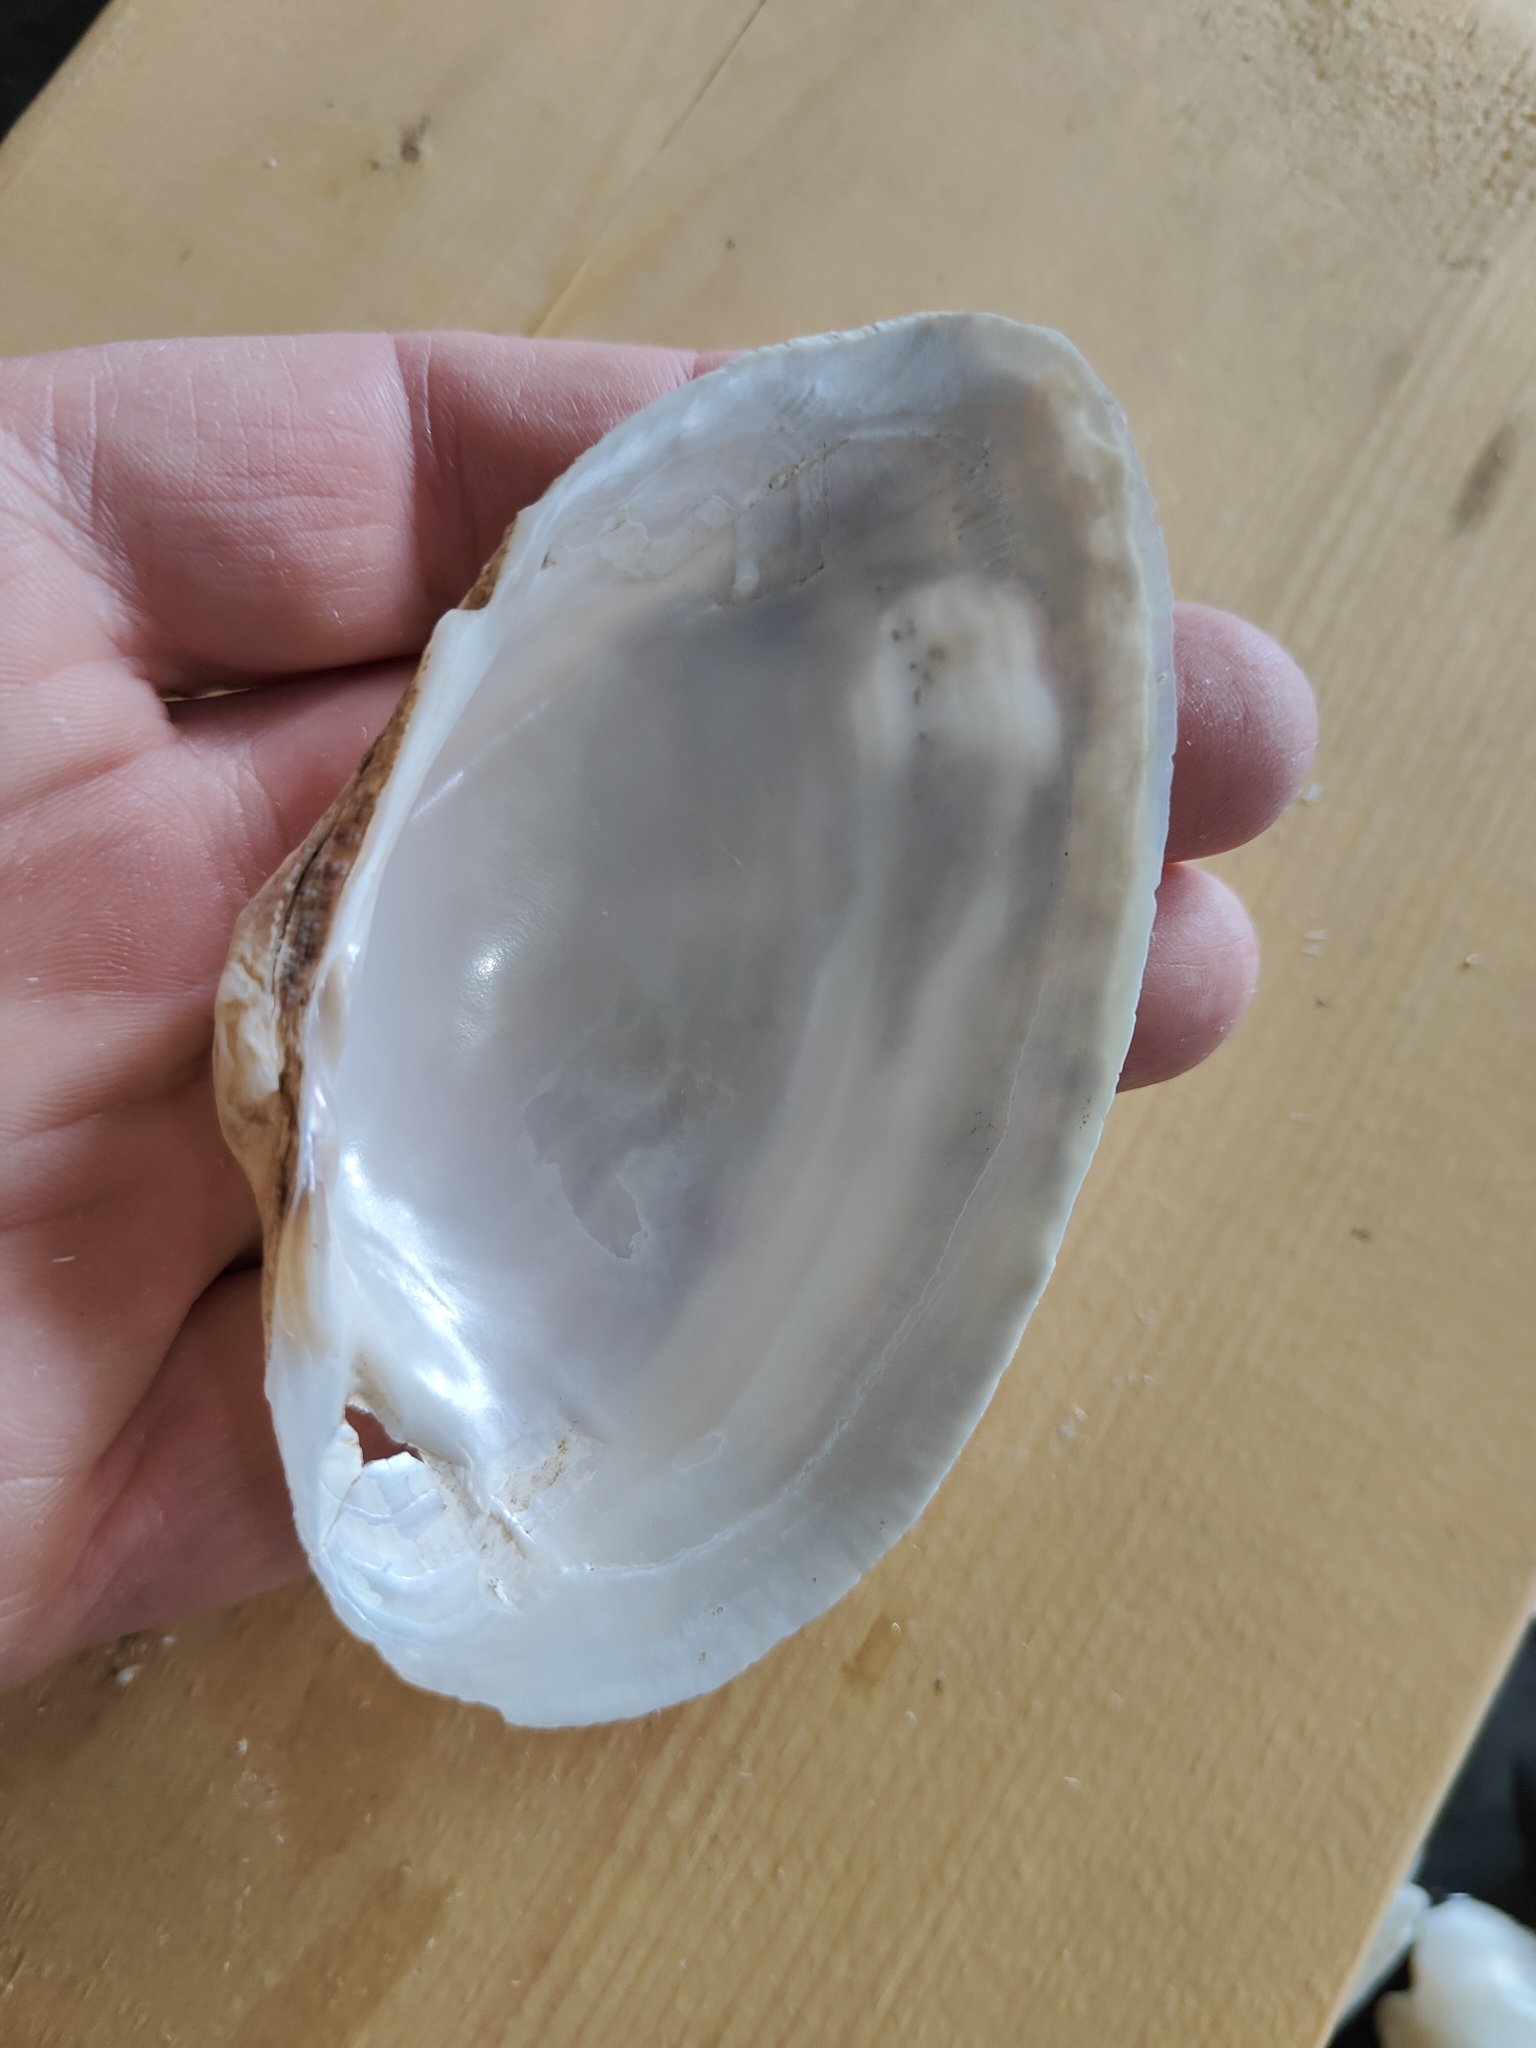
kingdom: Animalia
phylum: Mollusca
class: Bivalvia
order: Unionida
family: Unionidae
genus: Alasmidonta
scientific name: Alasmidonta marginata
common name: Elktoe
